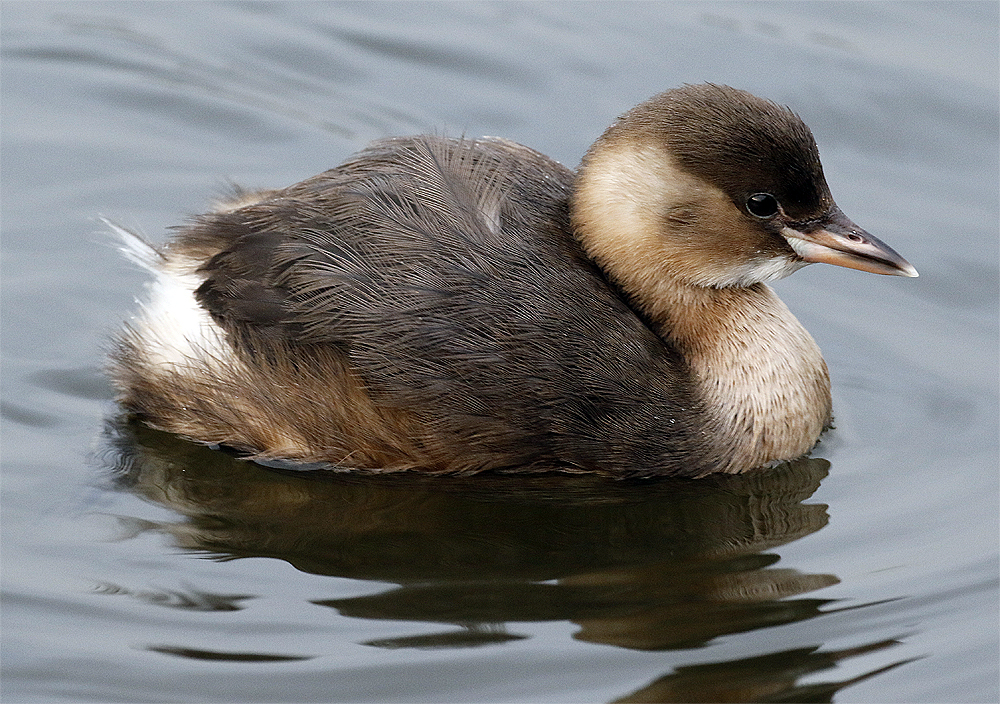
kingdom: Animalia
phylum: Chordata
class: Aves
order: Podicipediformes
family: Podicipedidae
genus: Tachybaptus
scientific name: Tachybaptus ruficollis
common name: Little grebe
